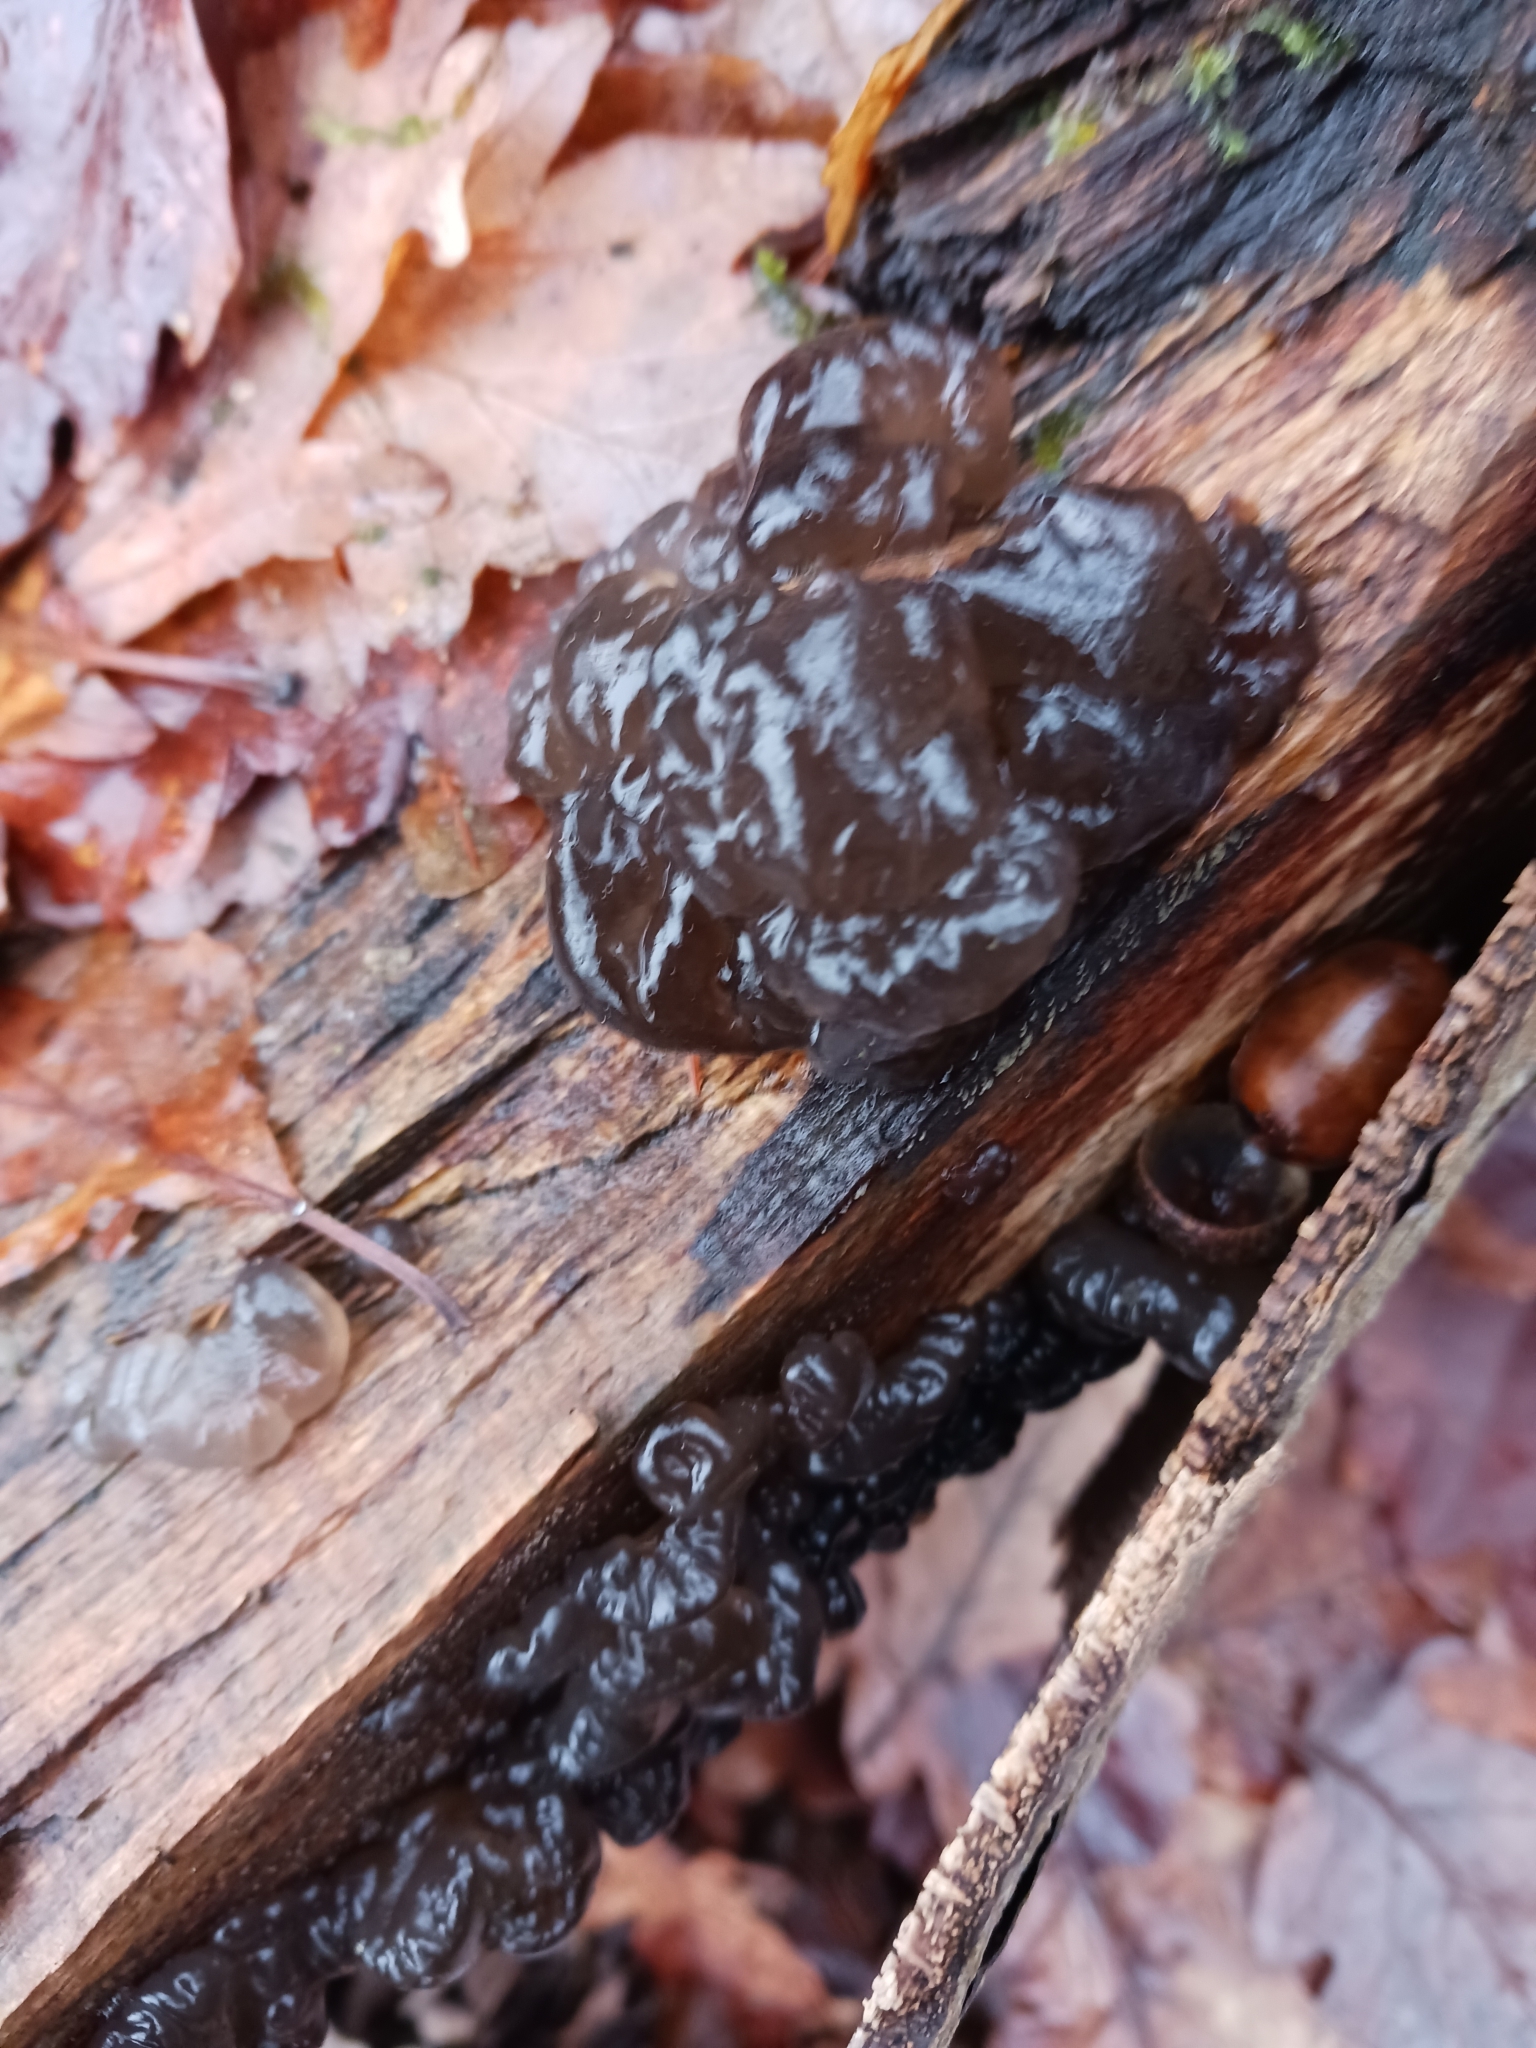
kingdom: Fungi
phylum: Basidiomycota
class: Agaricomycetes
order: Auriculariales
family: Auriculariaceae
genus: Exidia
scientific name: Exidia glandulosa
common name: Witches' butter
